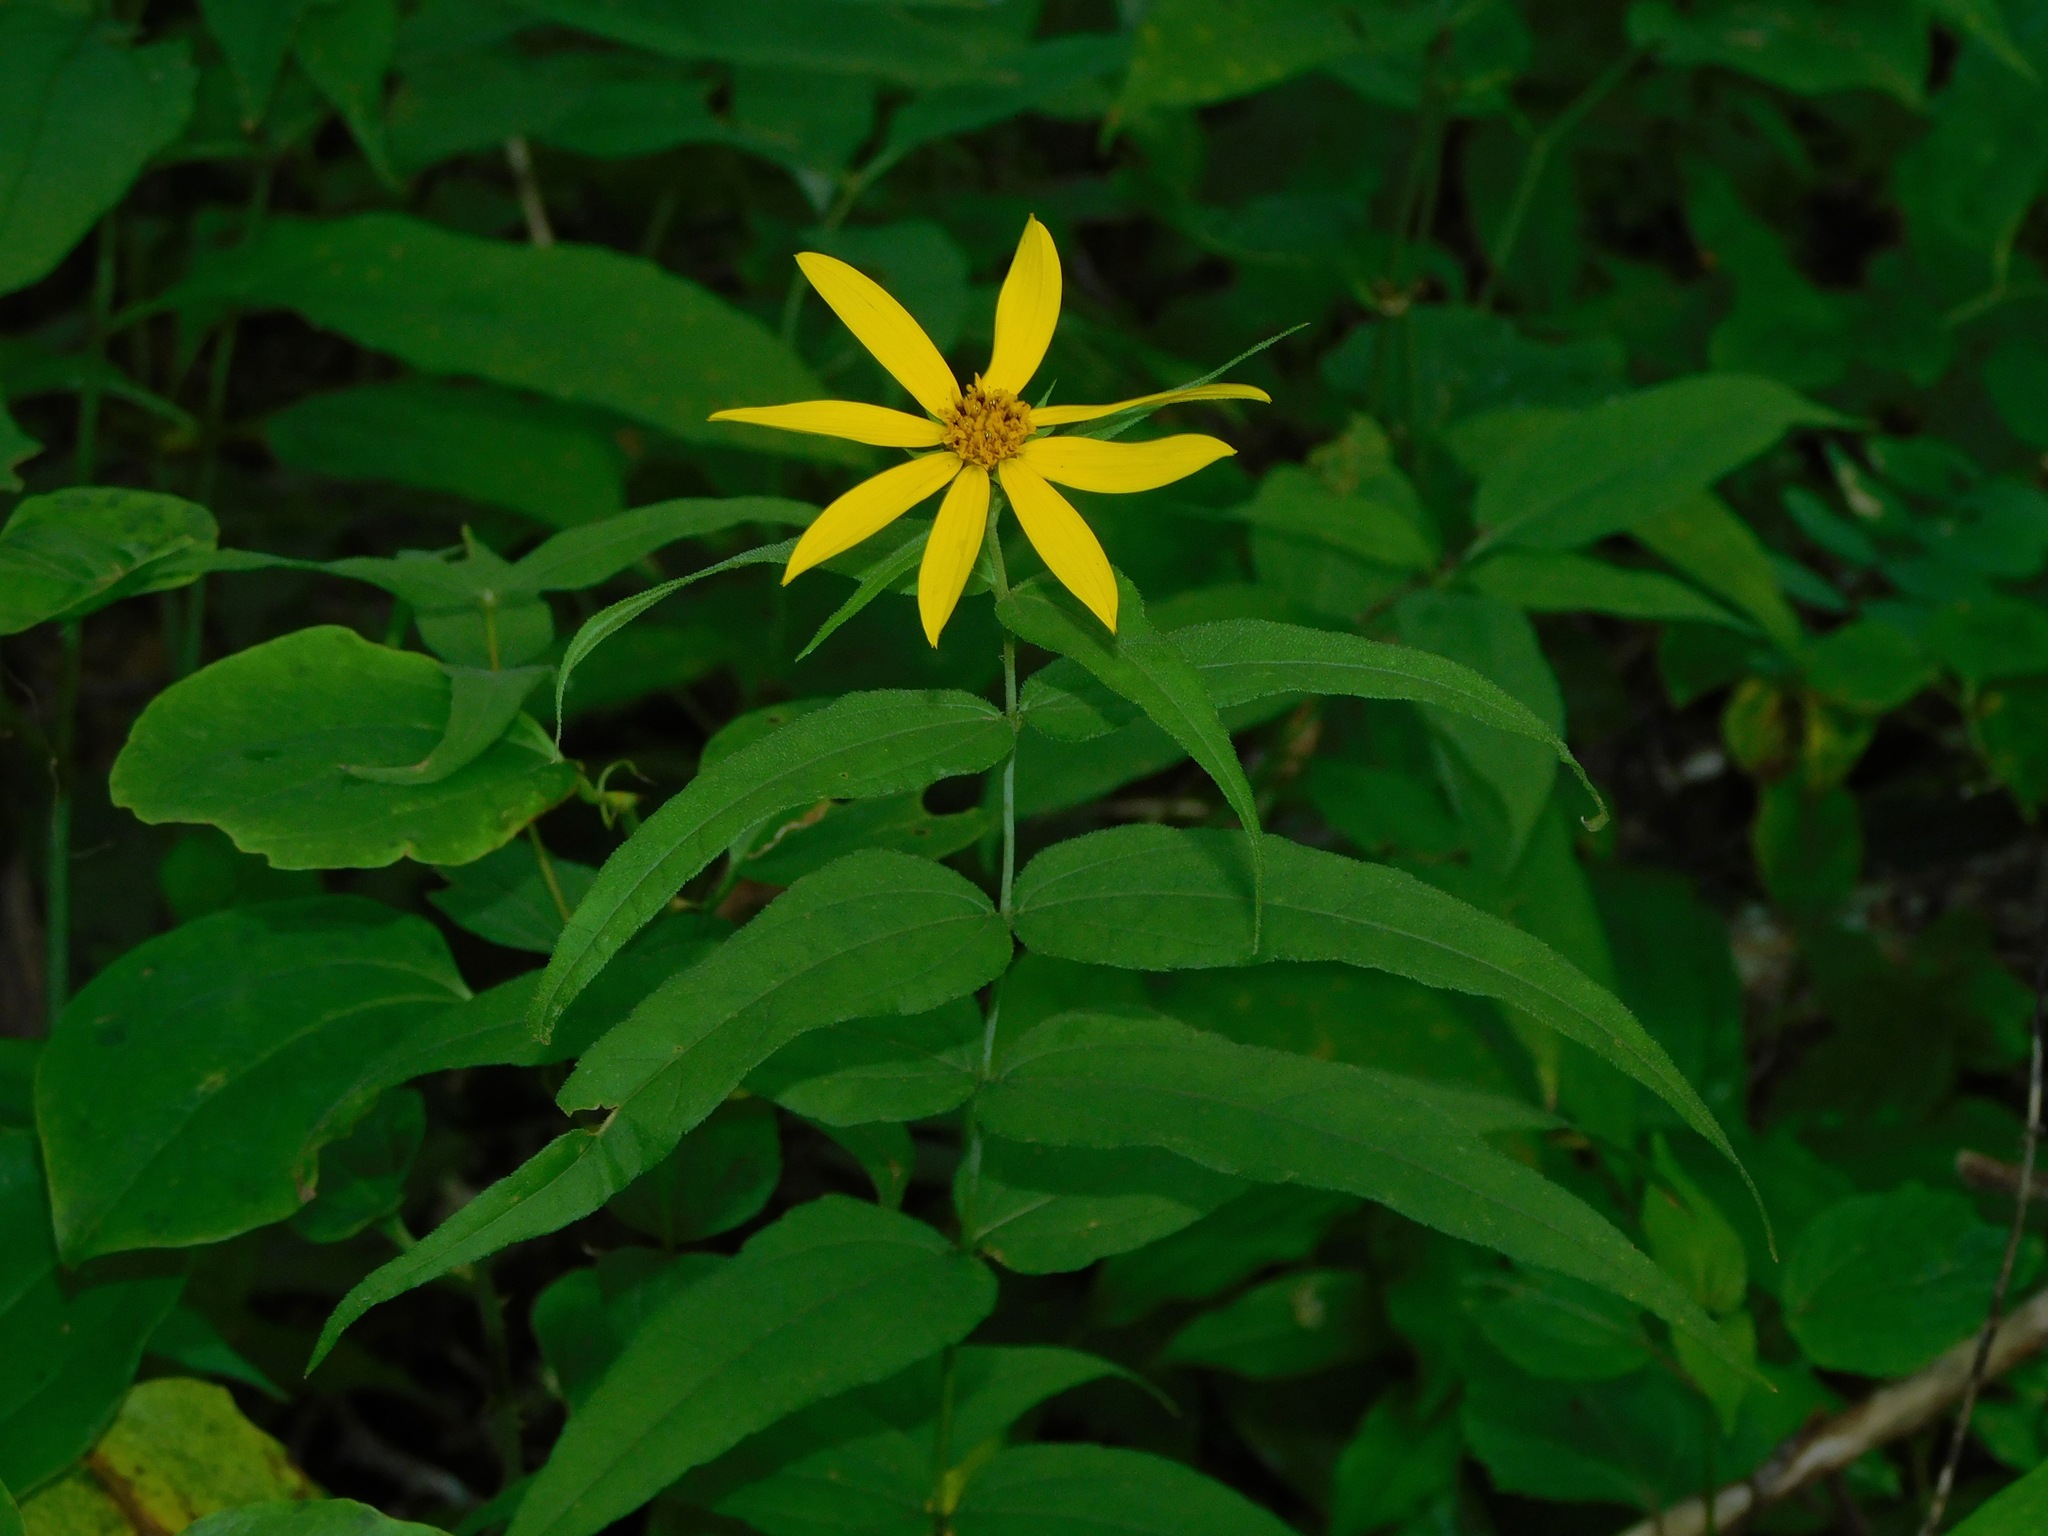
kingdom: Plantae
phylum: Tracheophyta
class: Magnoliopsida
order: Asterales
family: Asteraceae
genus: Helianthus
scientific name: Helianthus divaricatus
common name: Divergent sunflower
